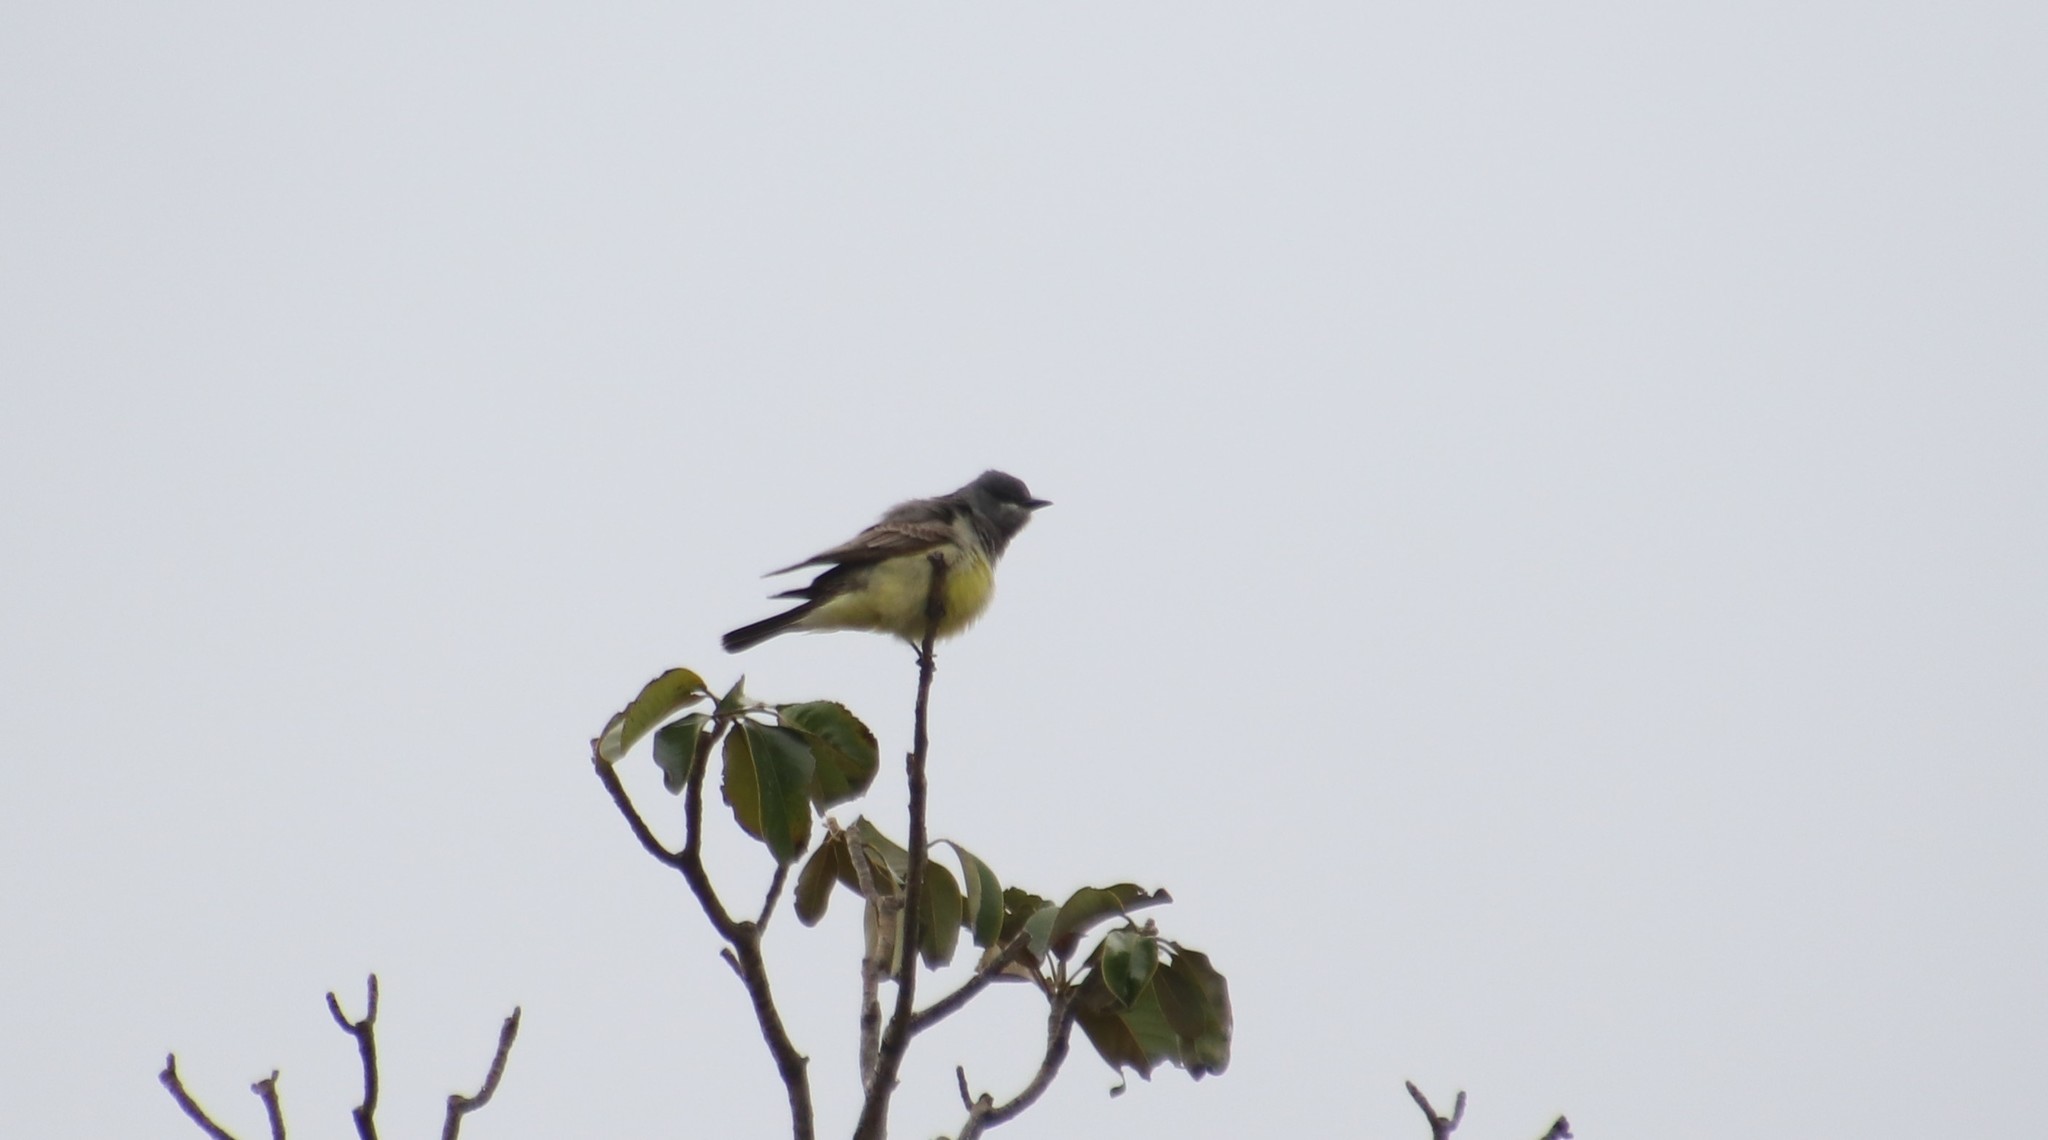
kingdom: Animalia
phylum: Chordata
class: Aves
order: Passeriformes
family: Tyrannidae
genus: Tyrannus
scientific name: Tyrannus vociferans
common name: Cassin's kingbird
